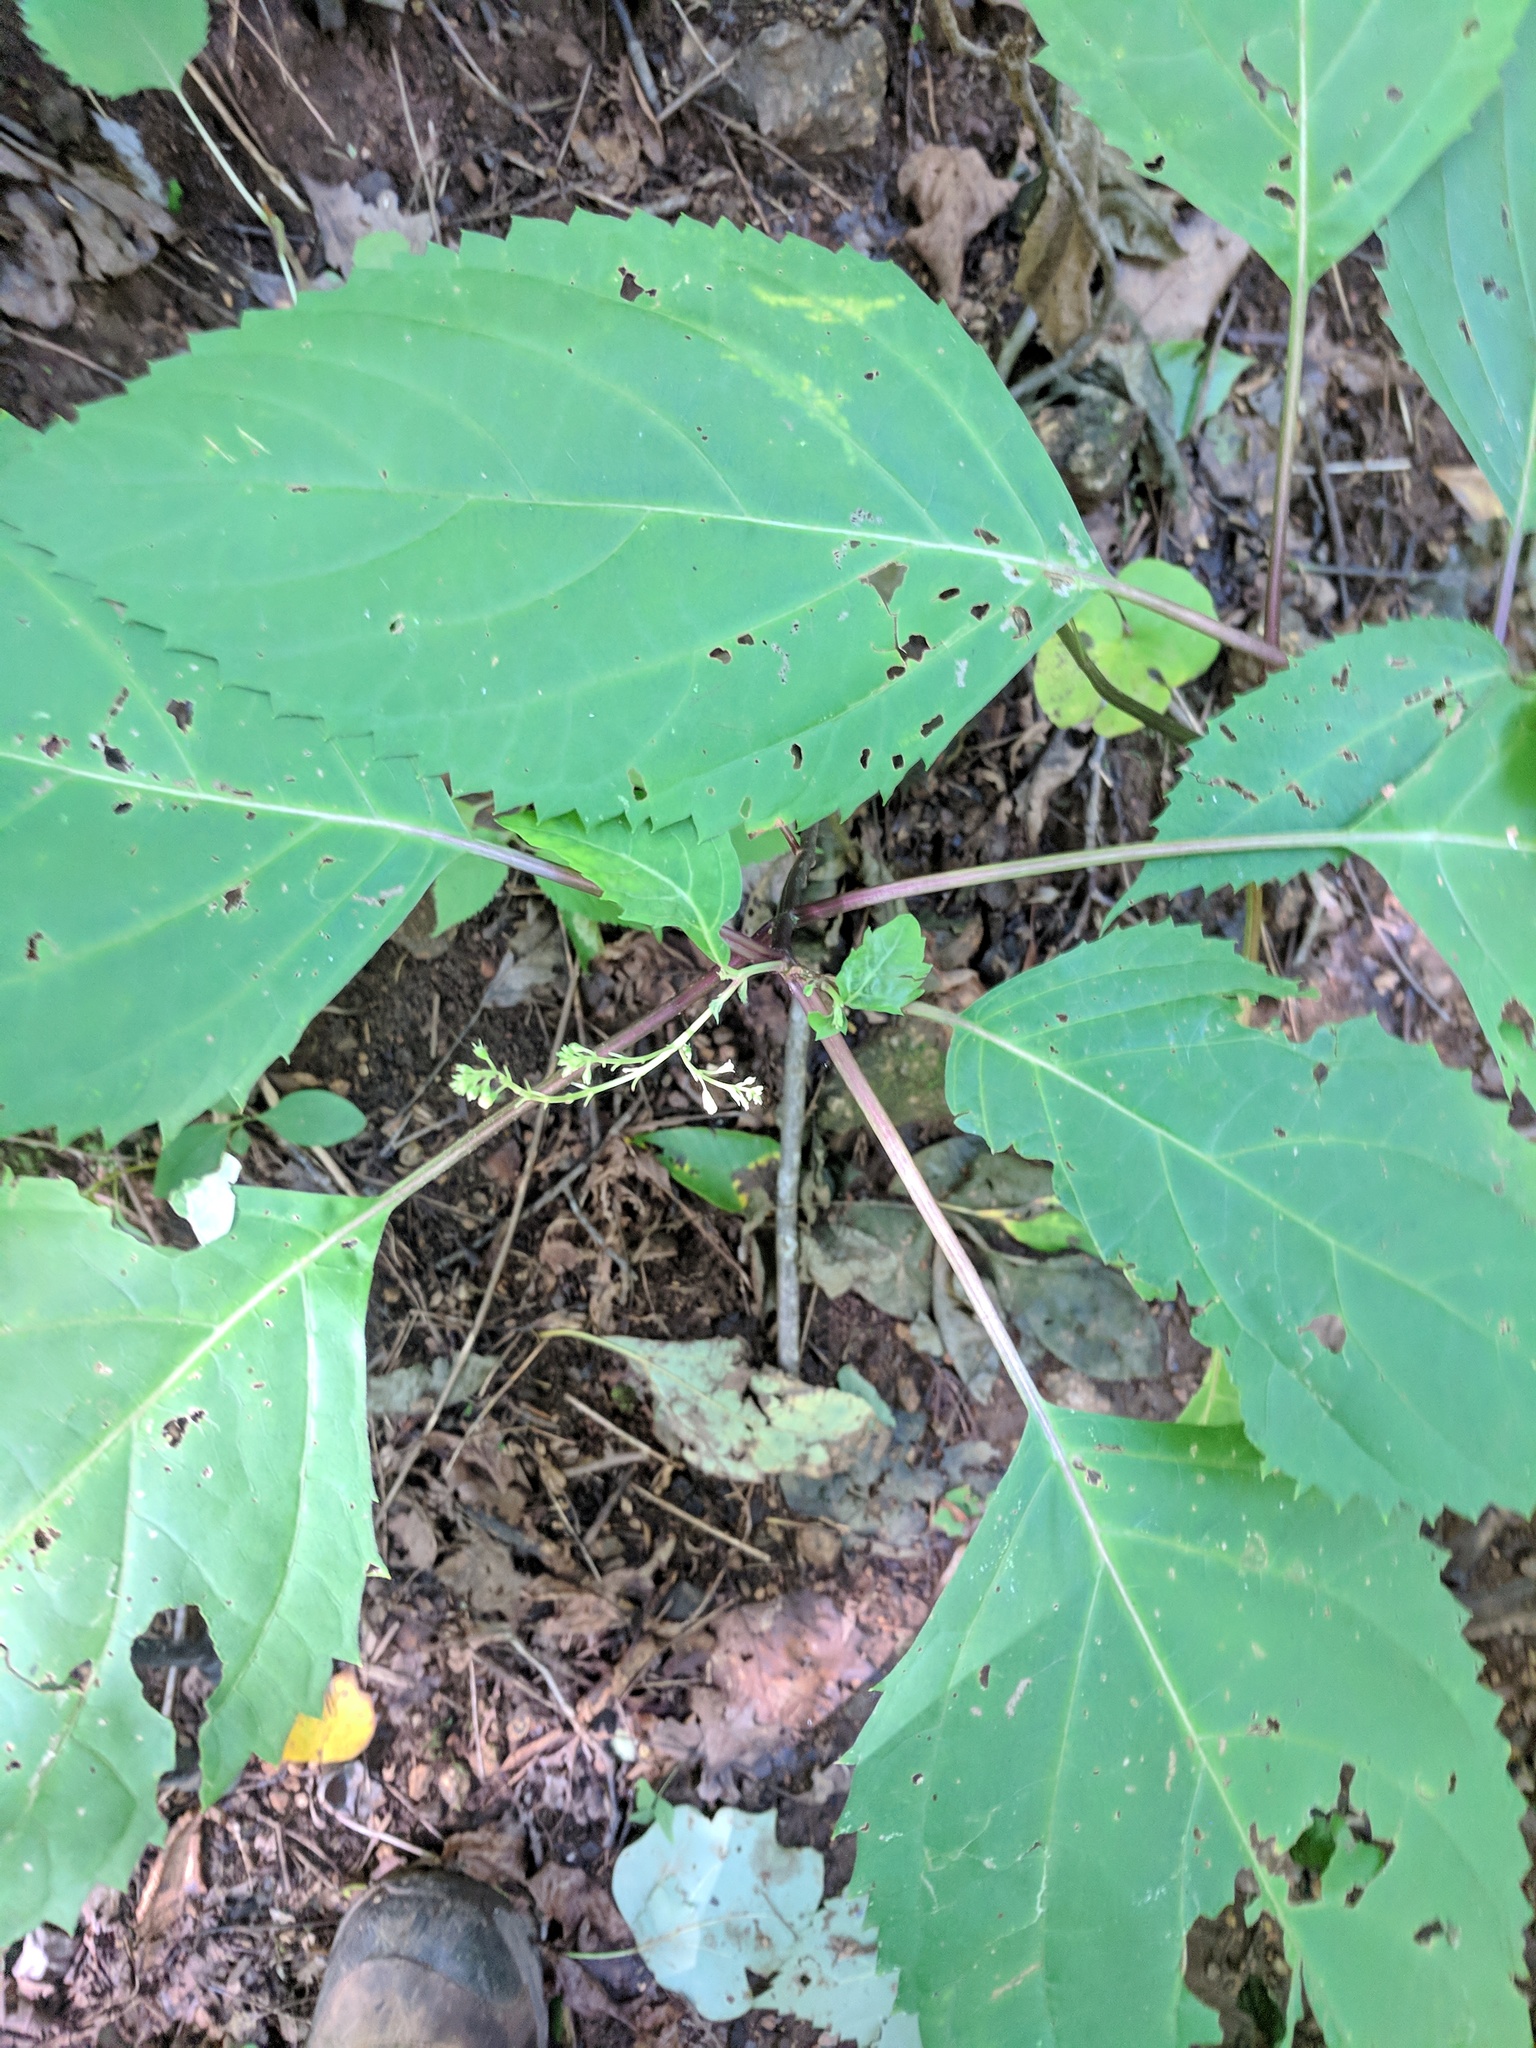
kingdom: Plantae
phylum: Tracheophyta
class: Magnoliopsida
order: Lamiales
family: Lamiaceae
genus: Collinsonia
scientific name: Collinsonia canadensis
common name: Northern horsebalm
